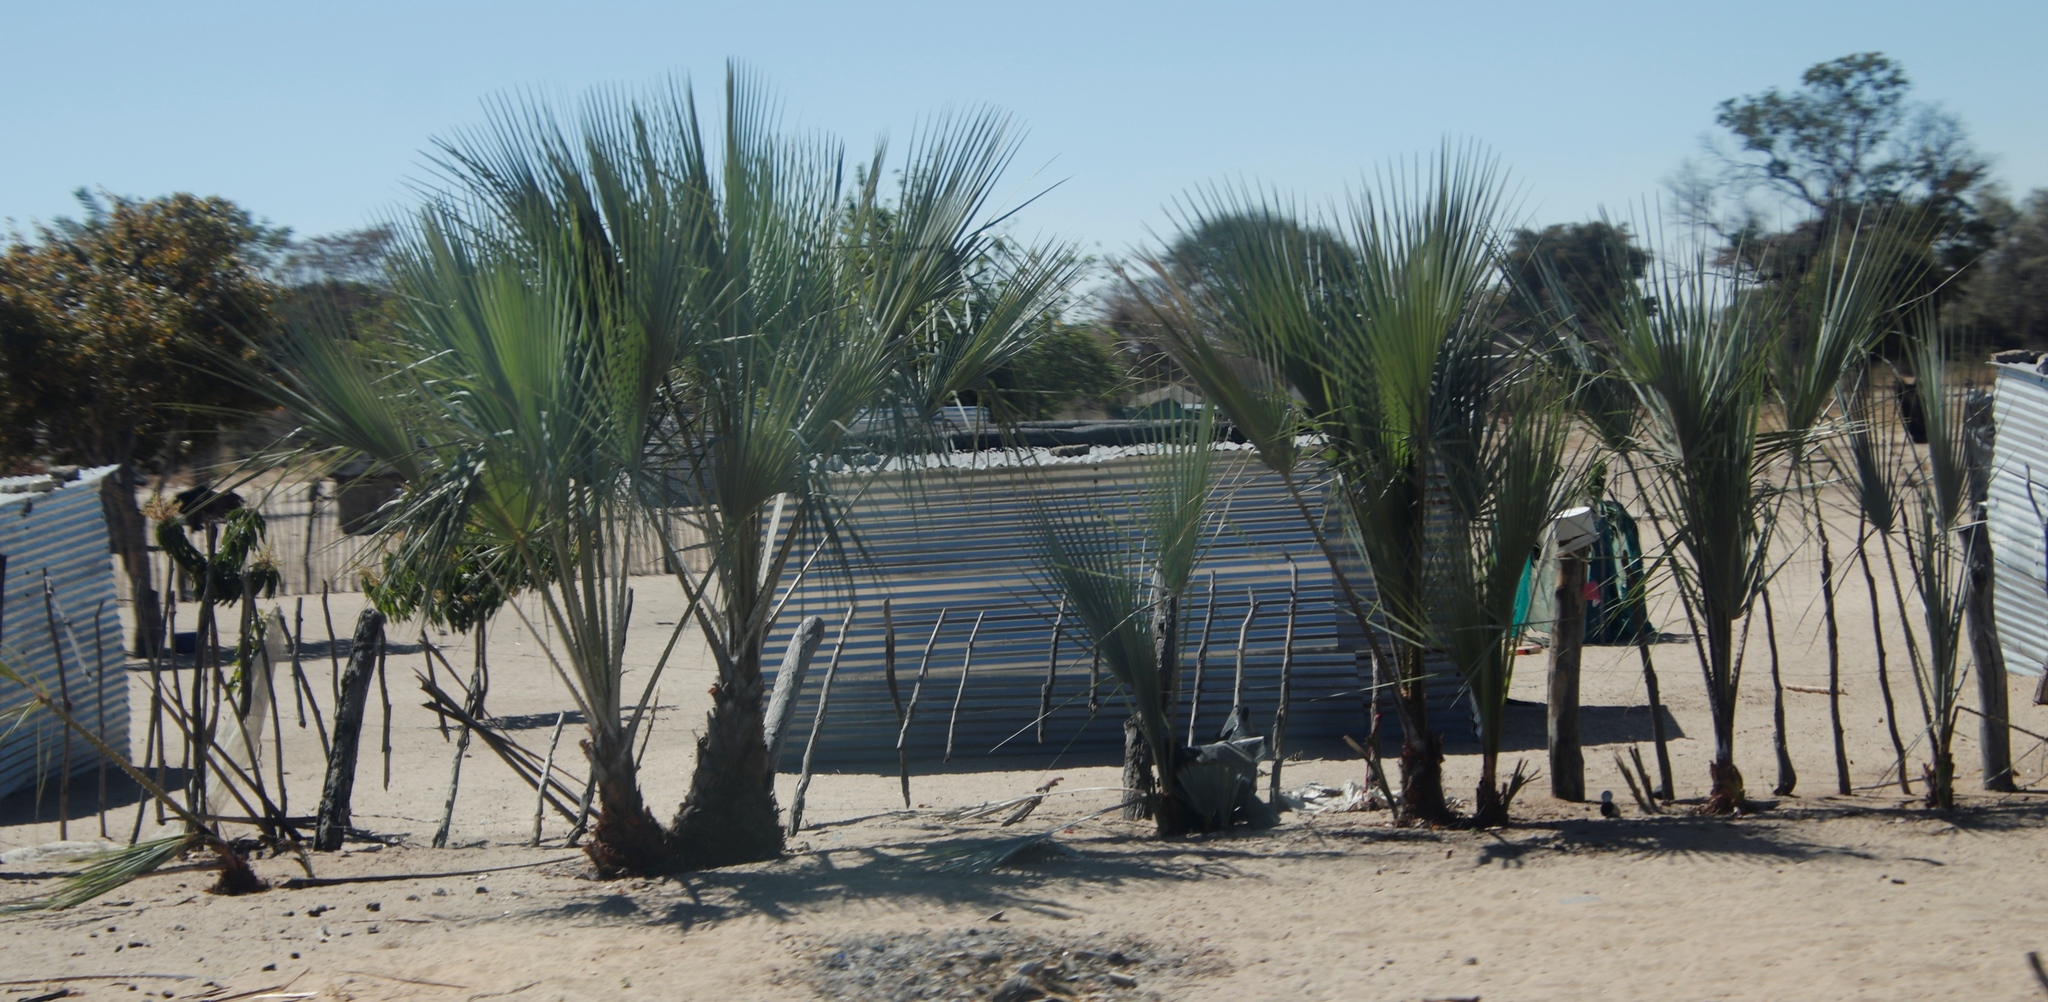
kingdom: Plantae
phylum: Tracheophyta
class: Liliopsida
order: Arecales
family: Arecaceae
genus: Hyphaene
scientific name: Hyphaene petersiana
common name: African ivory nut palm
